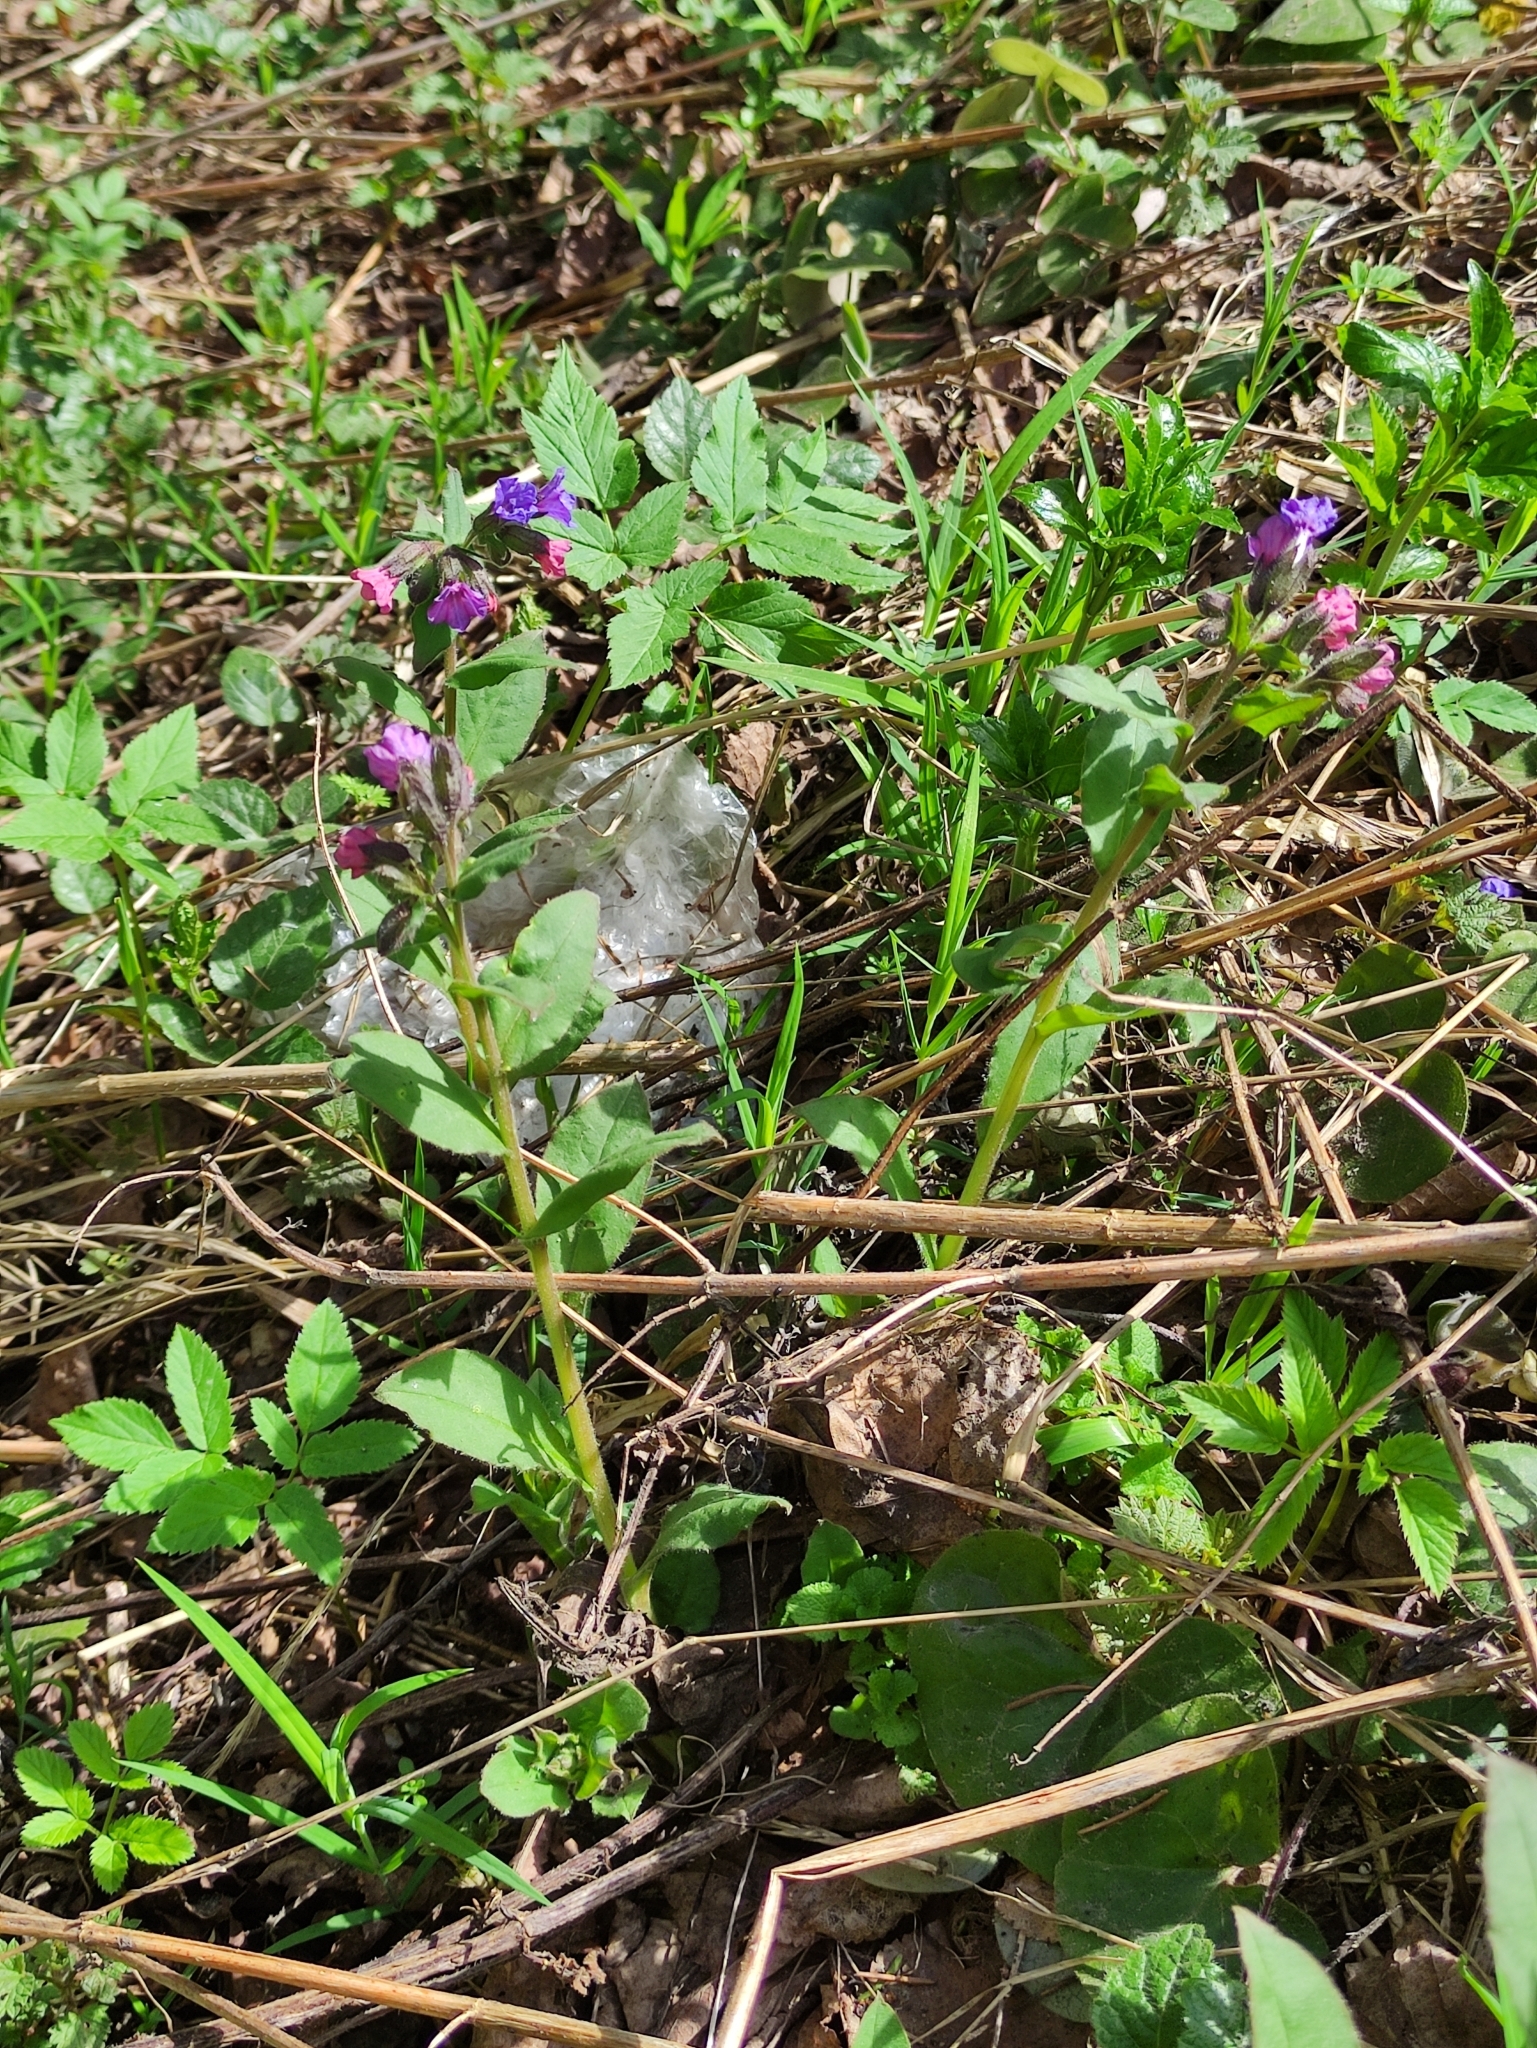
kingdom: Plantae
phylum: Tracheophyta
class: Magnoliopsida
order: Boraginales
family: Boraginaceae
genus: Pulmonaria
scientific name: Pulmonaria obscura
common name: Suffolk lungwort
